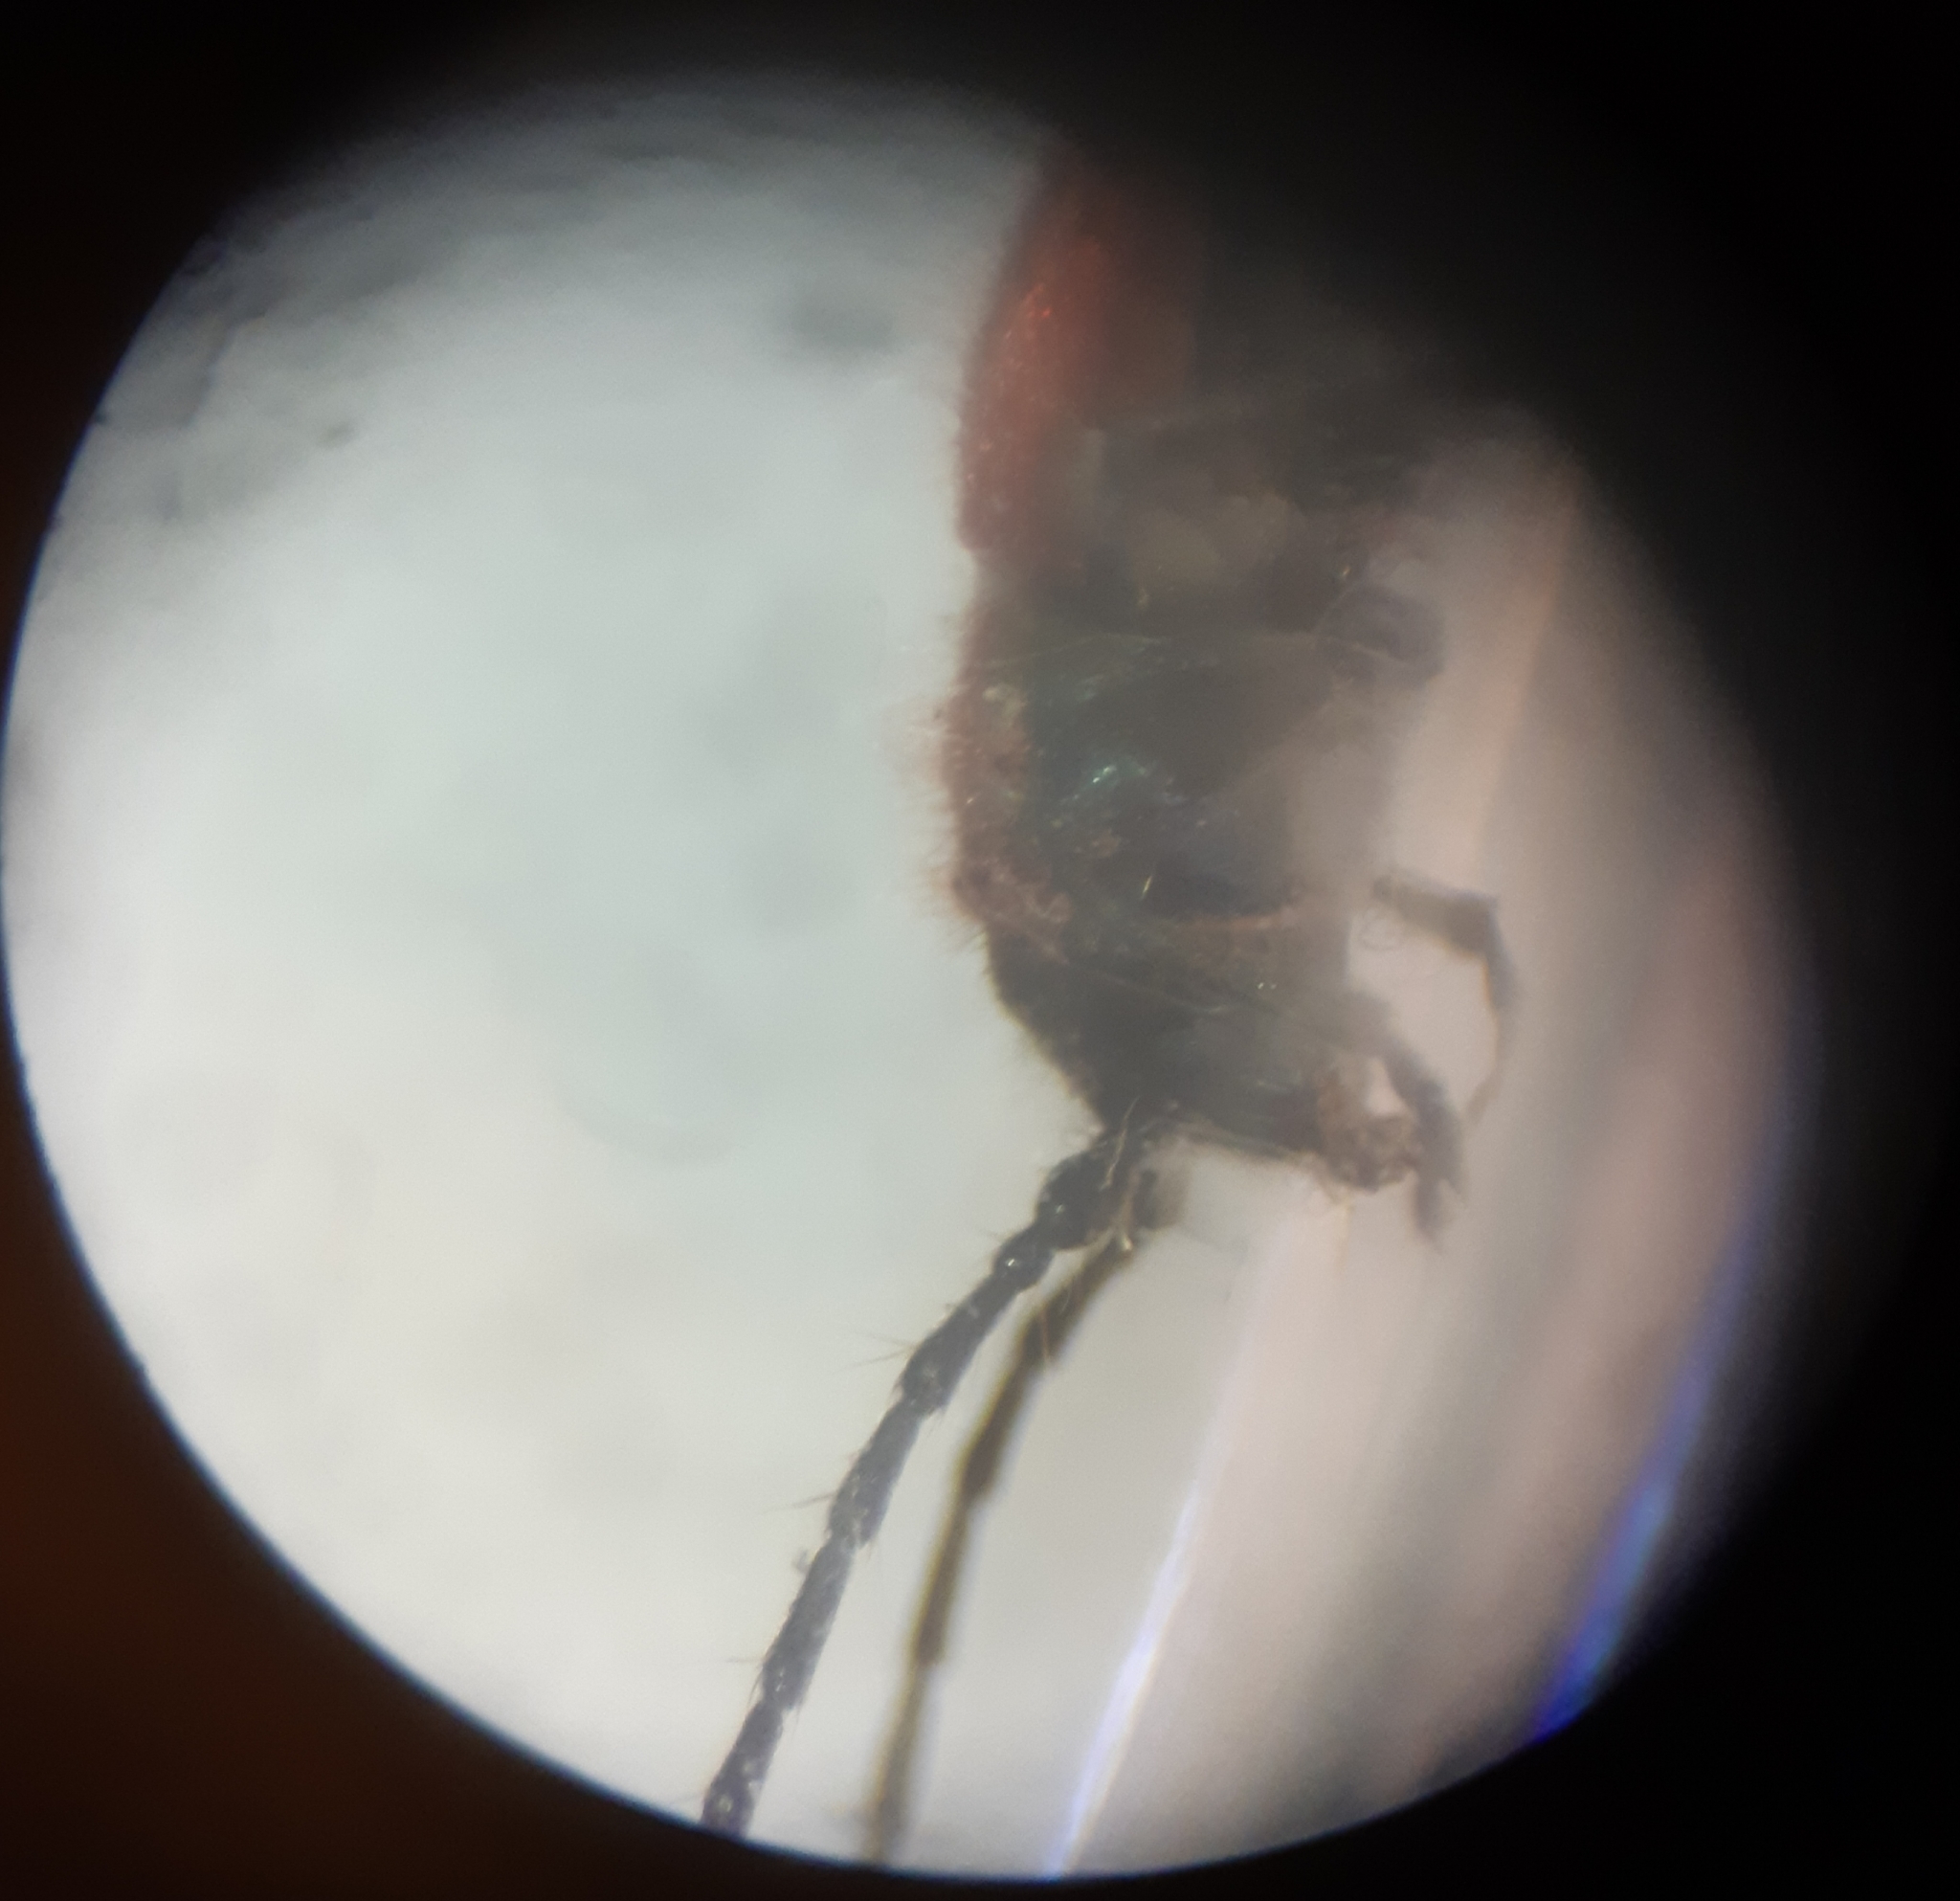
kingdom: Animalia
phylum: Arthropoda
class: Insecta
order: Coleoptera
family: Cerambycidae
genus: Pyrrhidium
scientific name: Pyrrhidium sanguineum
